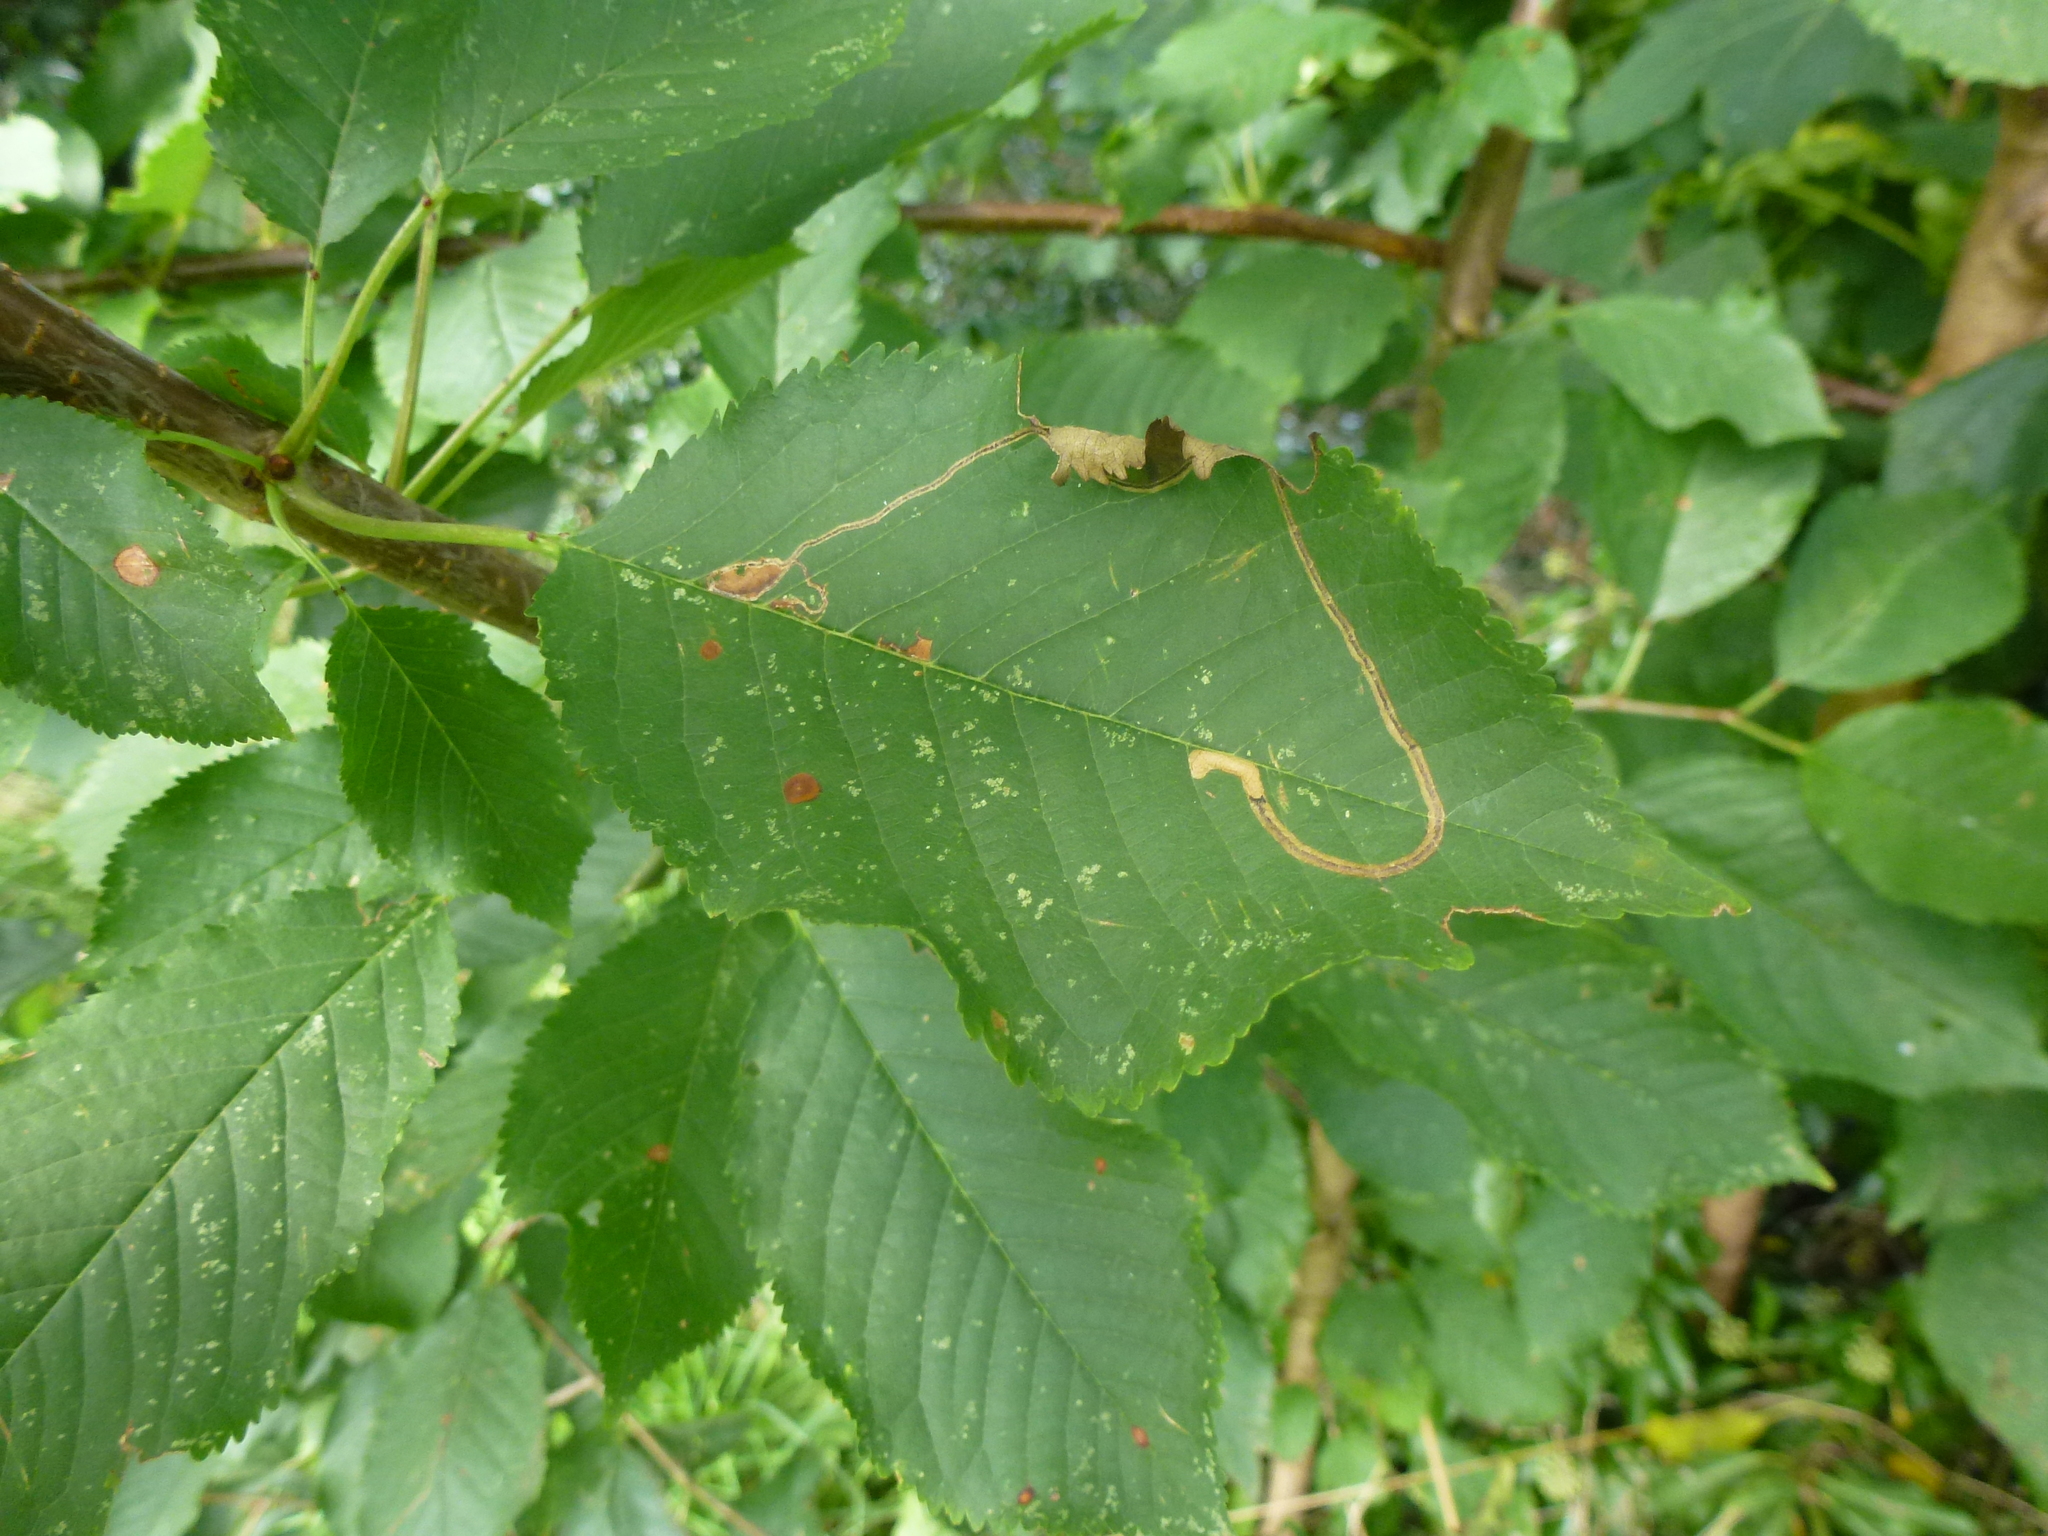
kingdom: Animalia
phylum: Arthropoda
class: Insecta
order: Lepidoptera
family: Lyonetiidae
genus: Lyonetia
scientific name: Lyonetia clerkella
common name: Apple leaf miner
